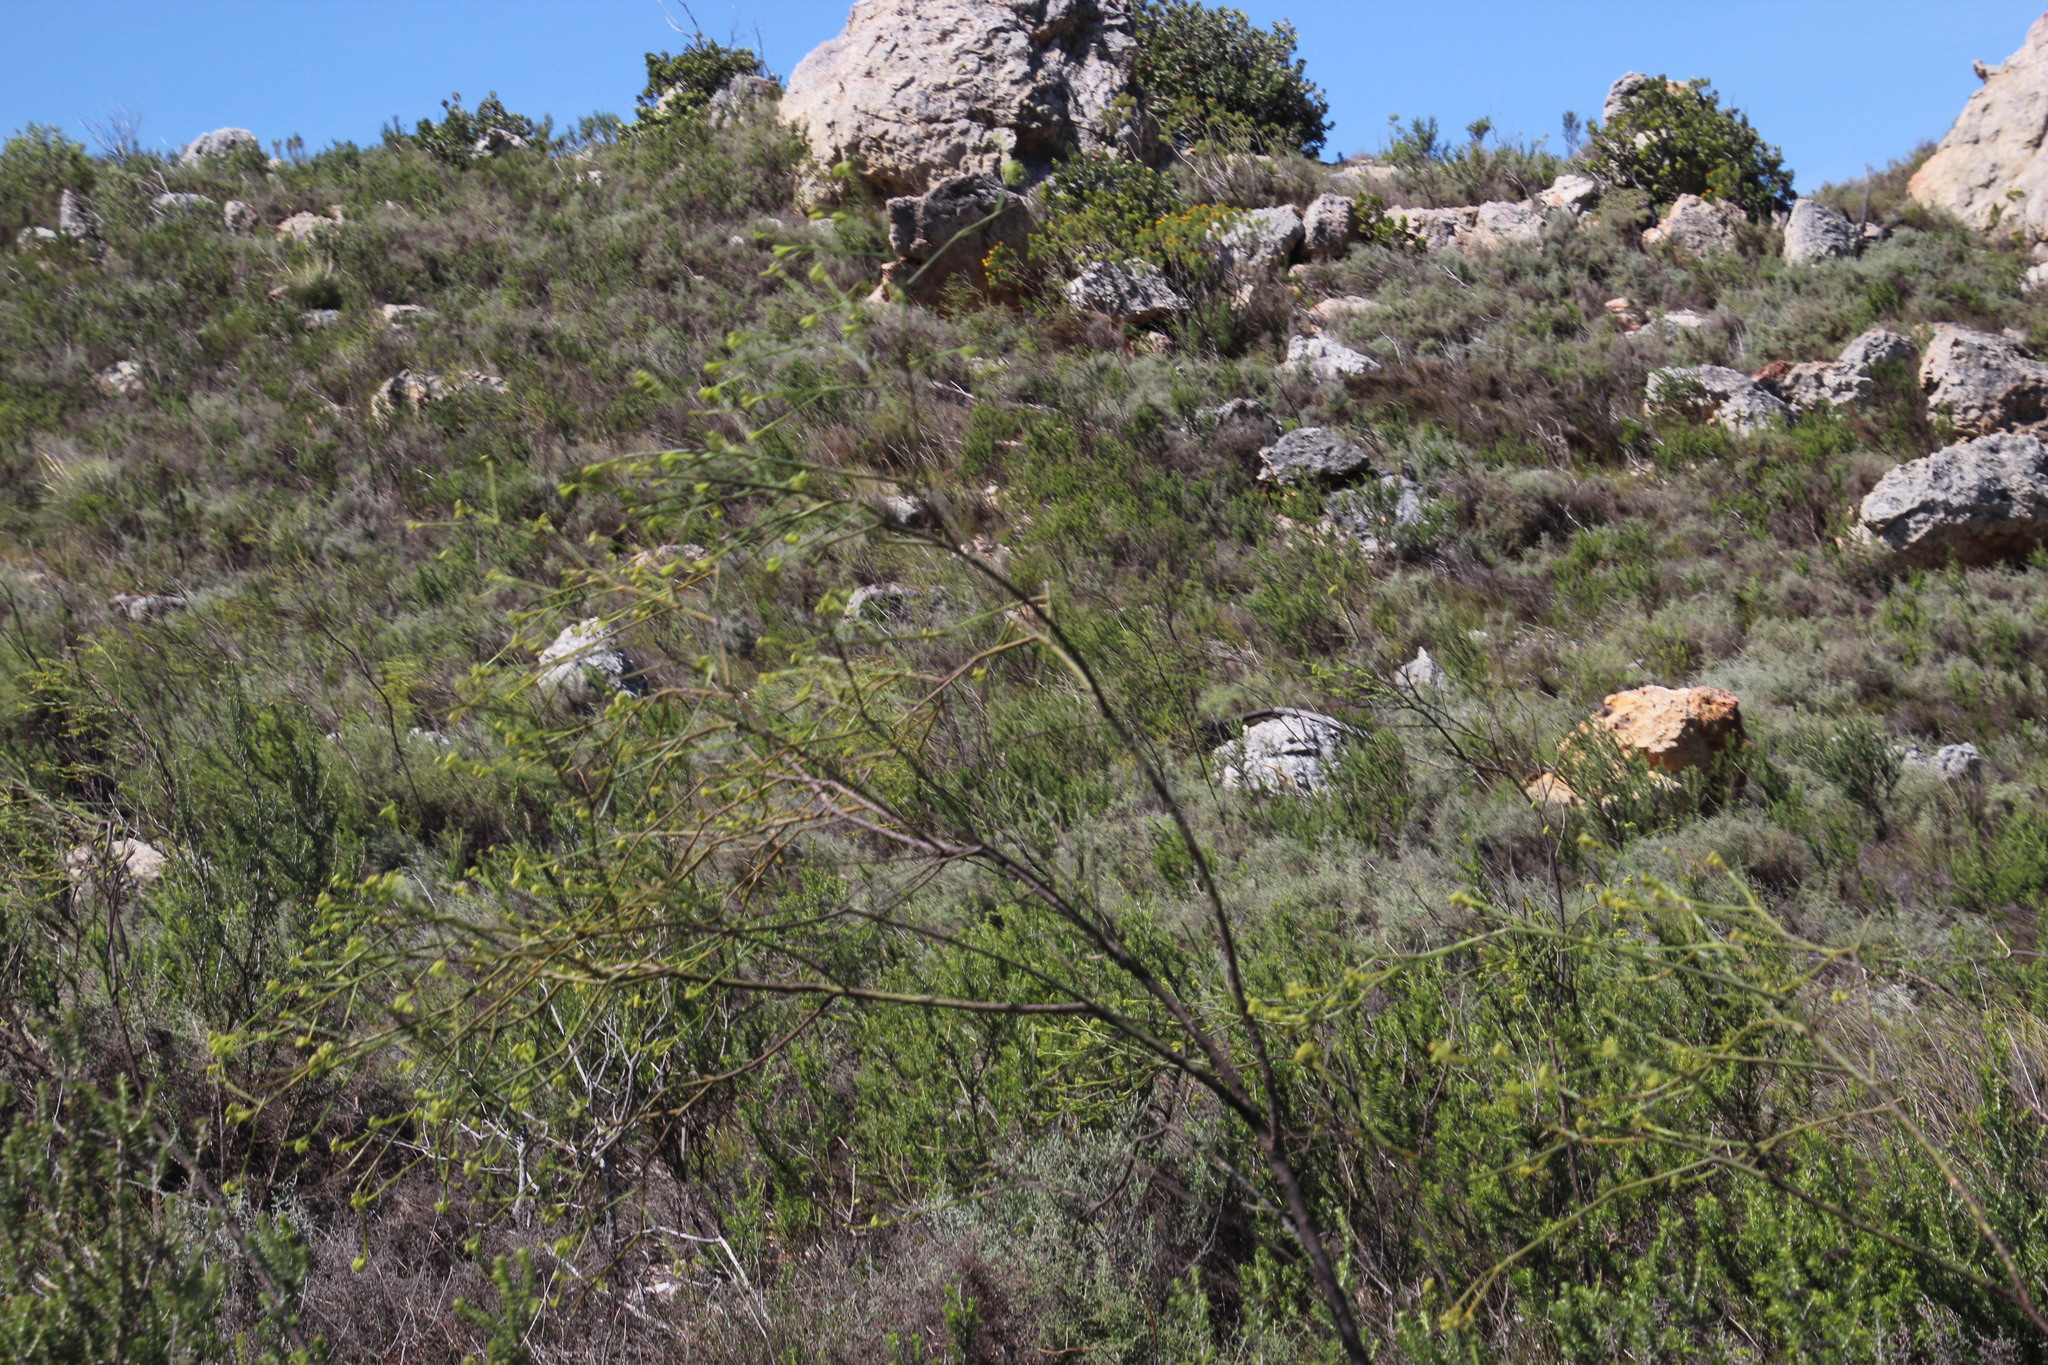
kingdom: Plantae
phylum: Tracheophyta
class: Magnoliopsida
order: Santalales
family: Thesiaceae
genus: Thesium
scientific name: Thesium strictum
